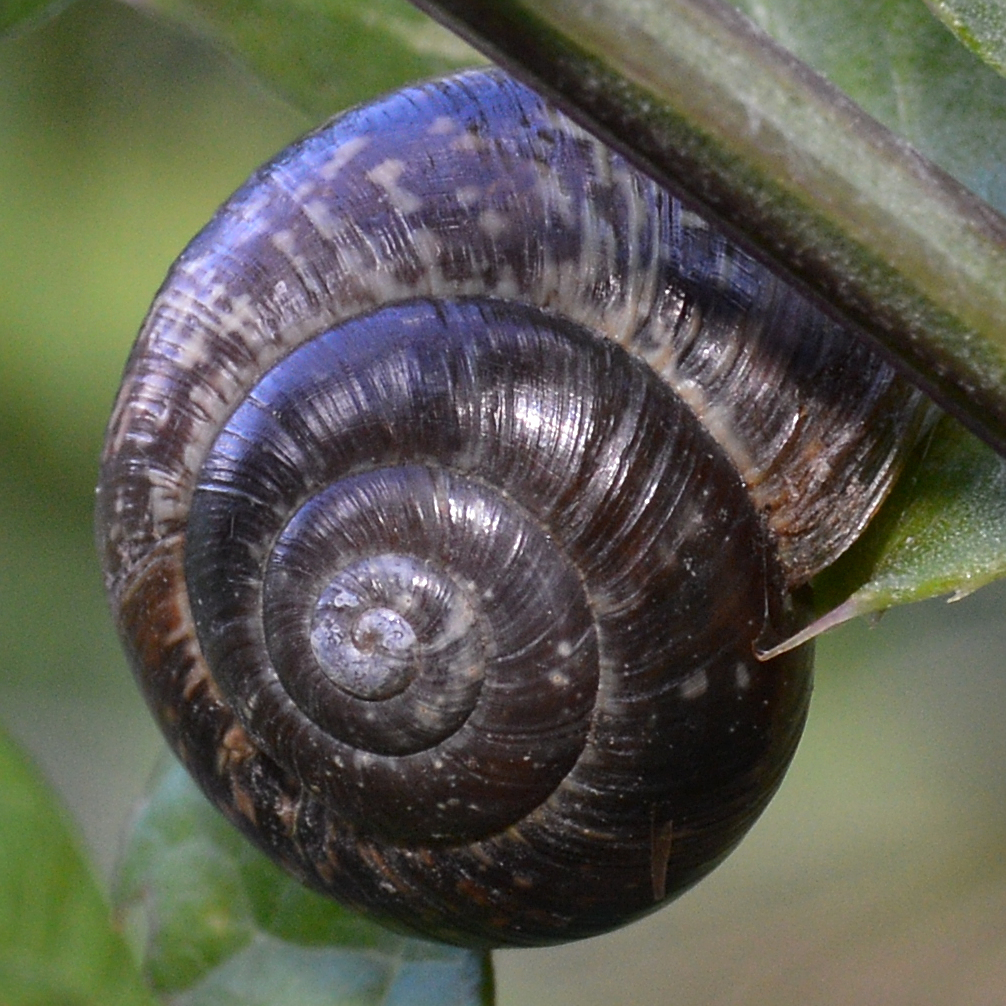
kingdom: Animalia
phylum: Mollusca
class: Gastropoda
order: Stylommatophora
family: Helicidae
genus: Arianta
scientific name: Arianta arbustorum
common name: Copse snail
